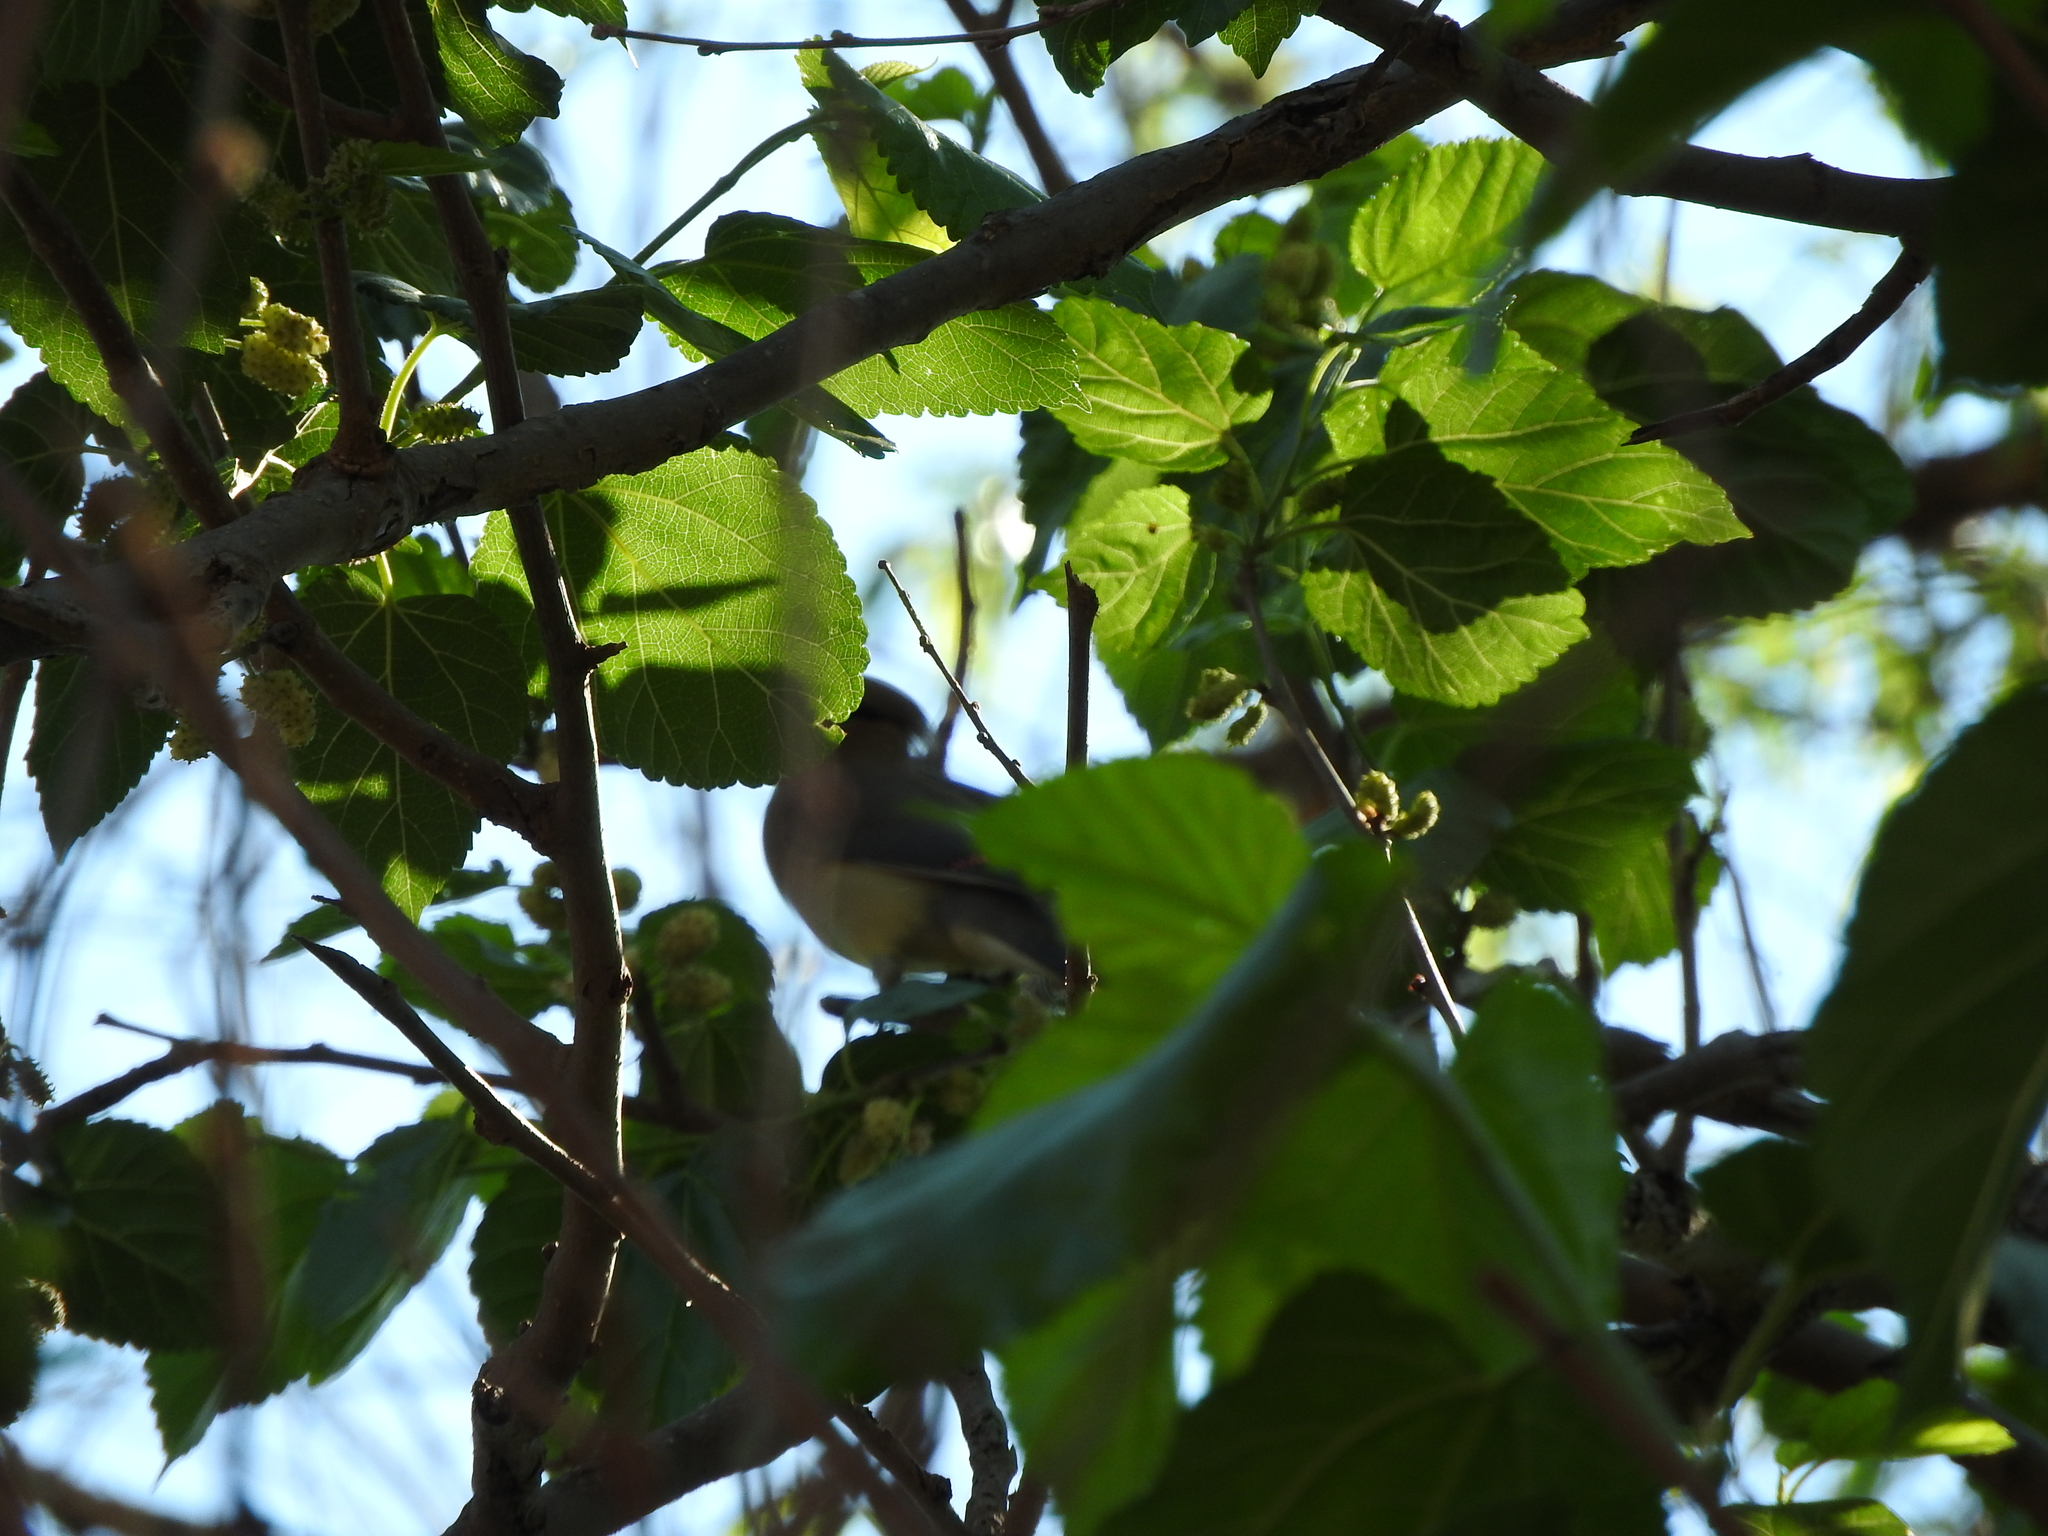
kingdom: Animalia
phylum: Chordata
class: Aves
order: Passeriformes
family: Bombycillidae
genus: Bombycilla
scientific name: Bombycilla cedrorum
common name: Cedar waxwing
